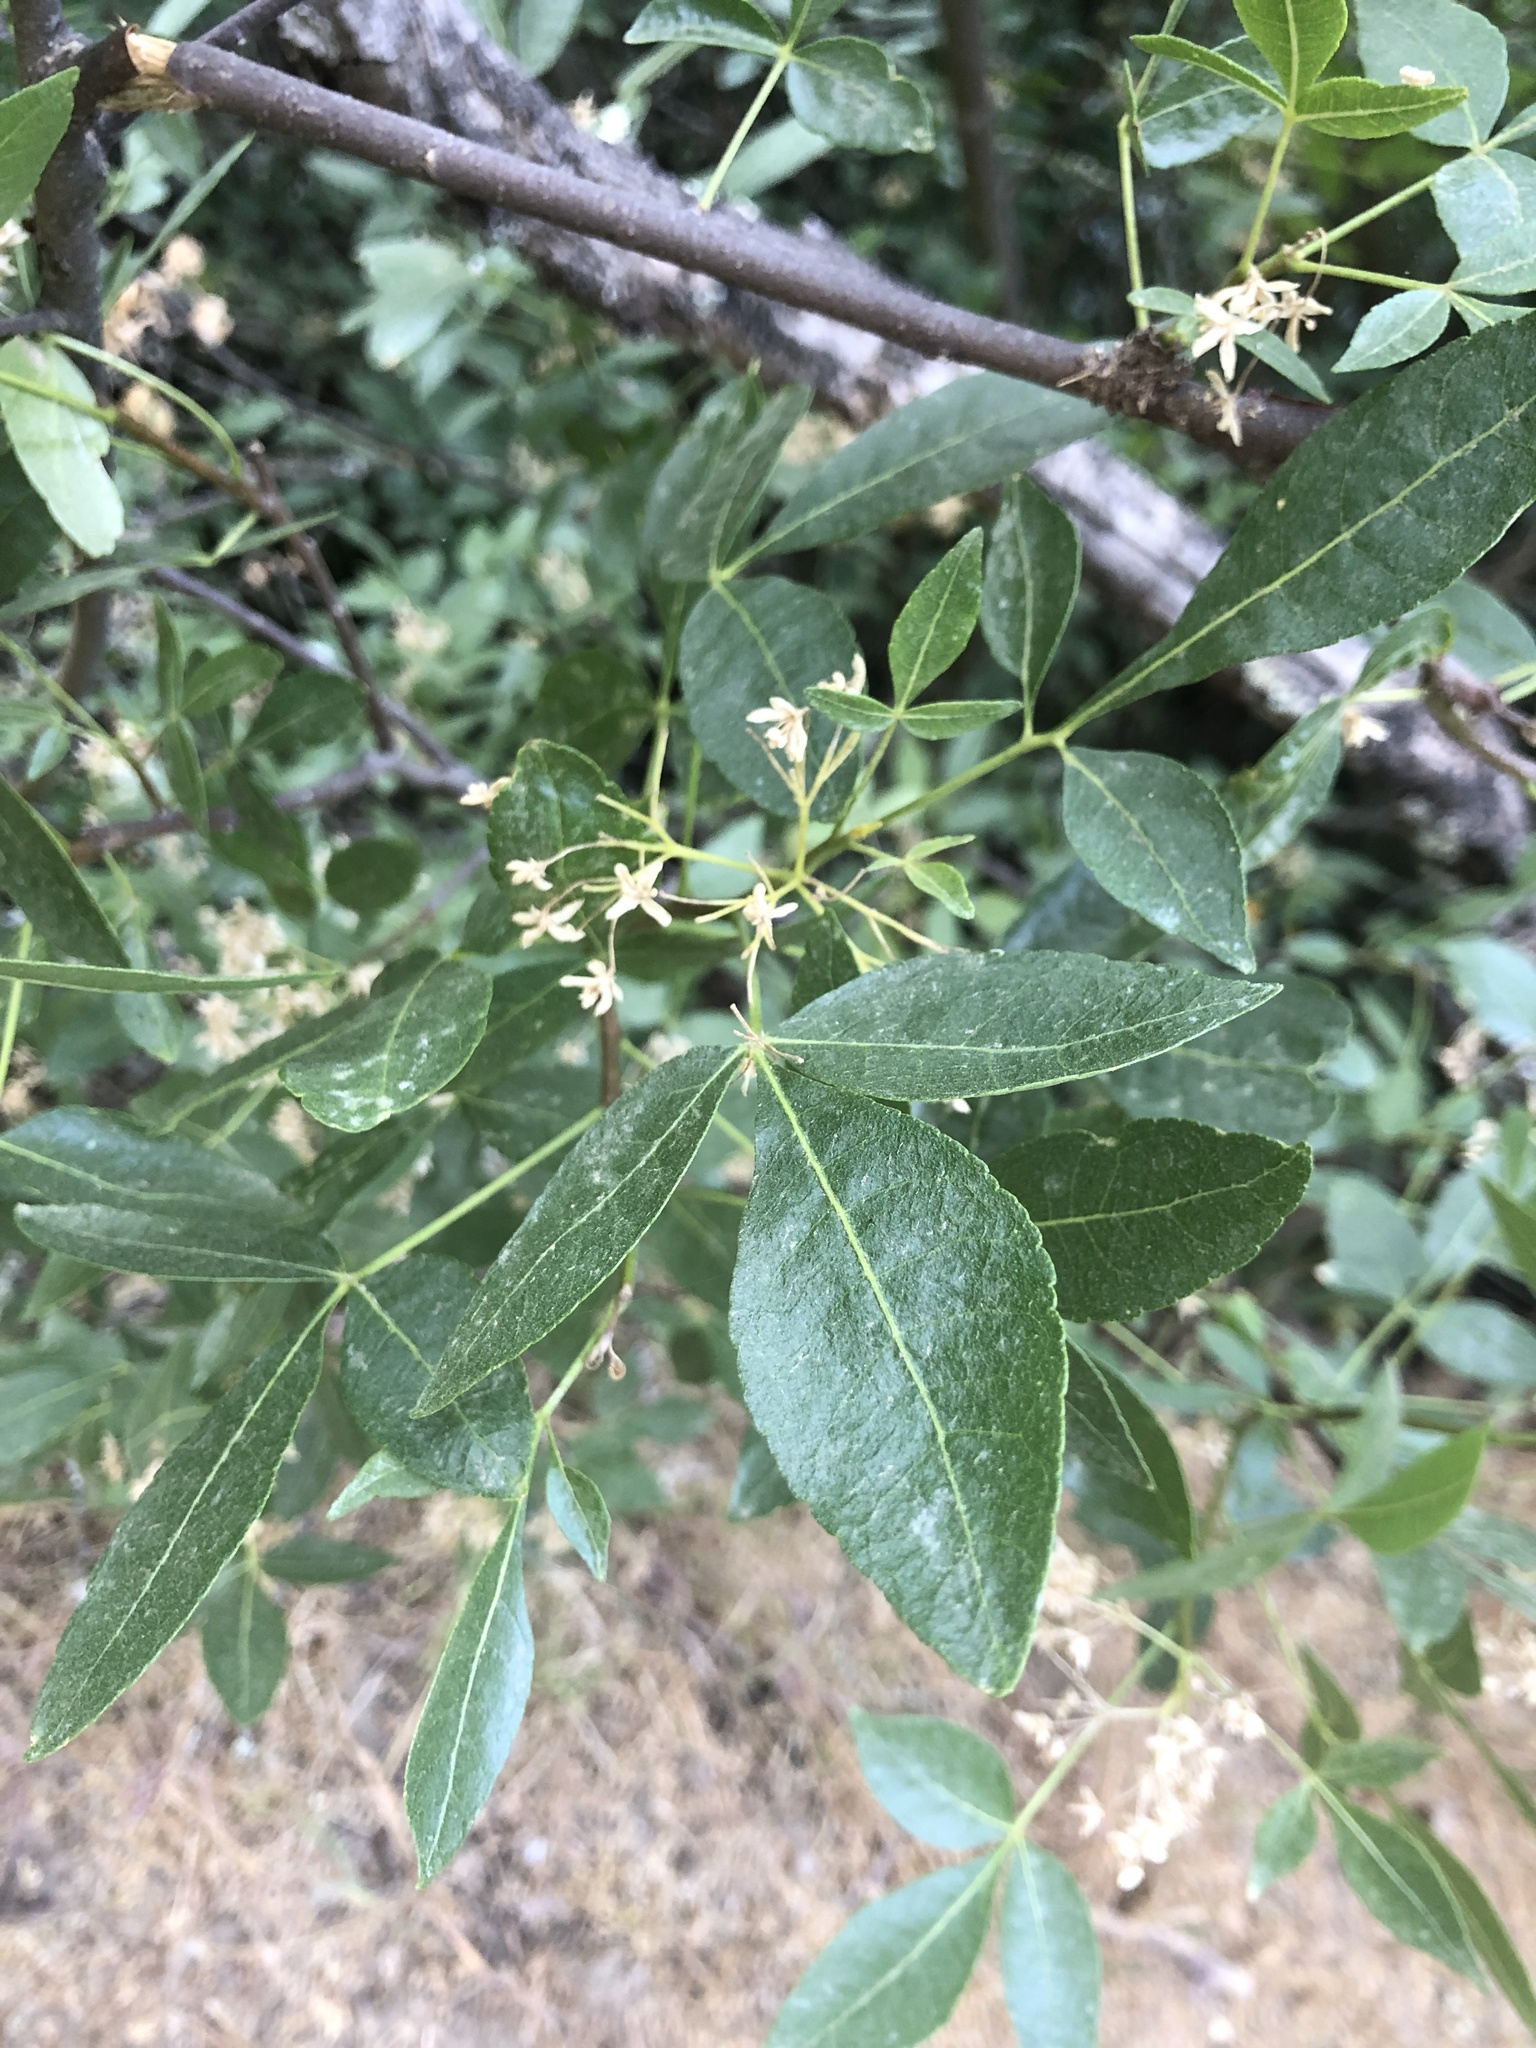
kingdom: Plantae
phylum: Tracheophyta
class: Magnoliopsida
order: Sapindales
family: Rutaceae
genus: Ptelea
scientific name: Ptelea crenulata
